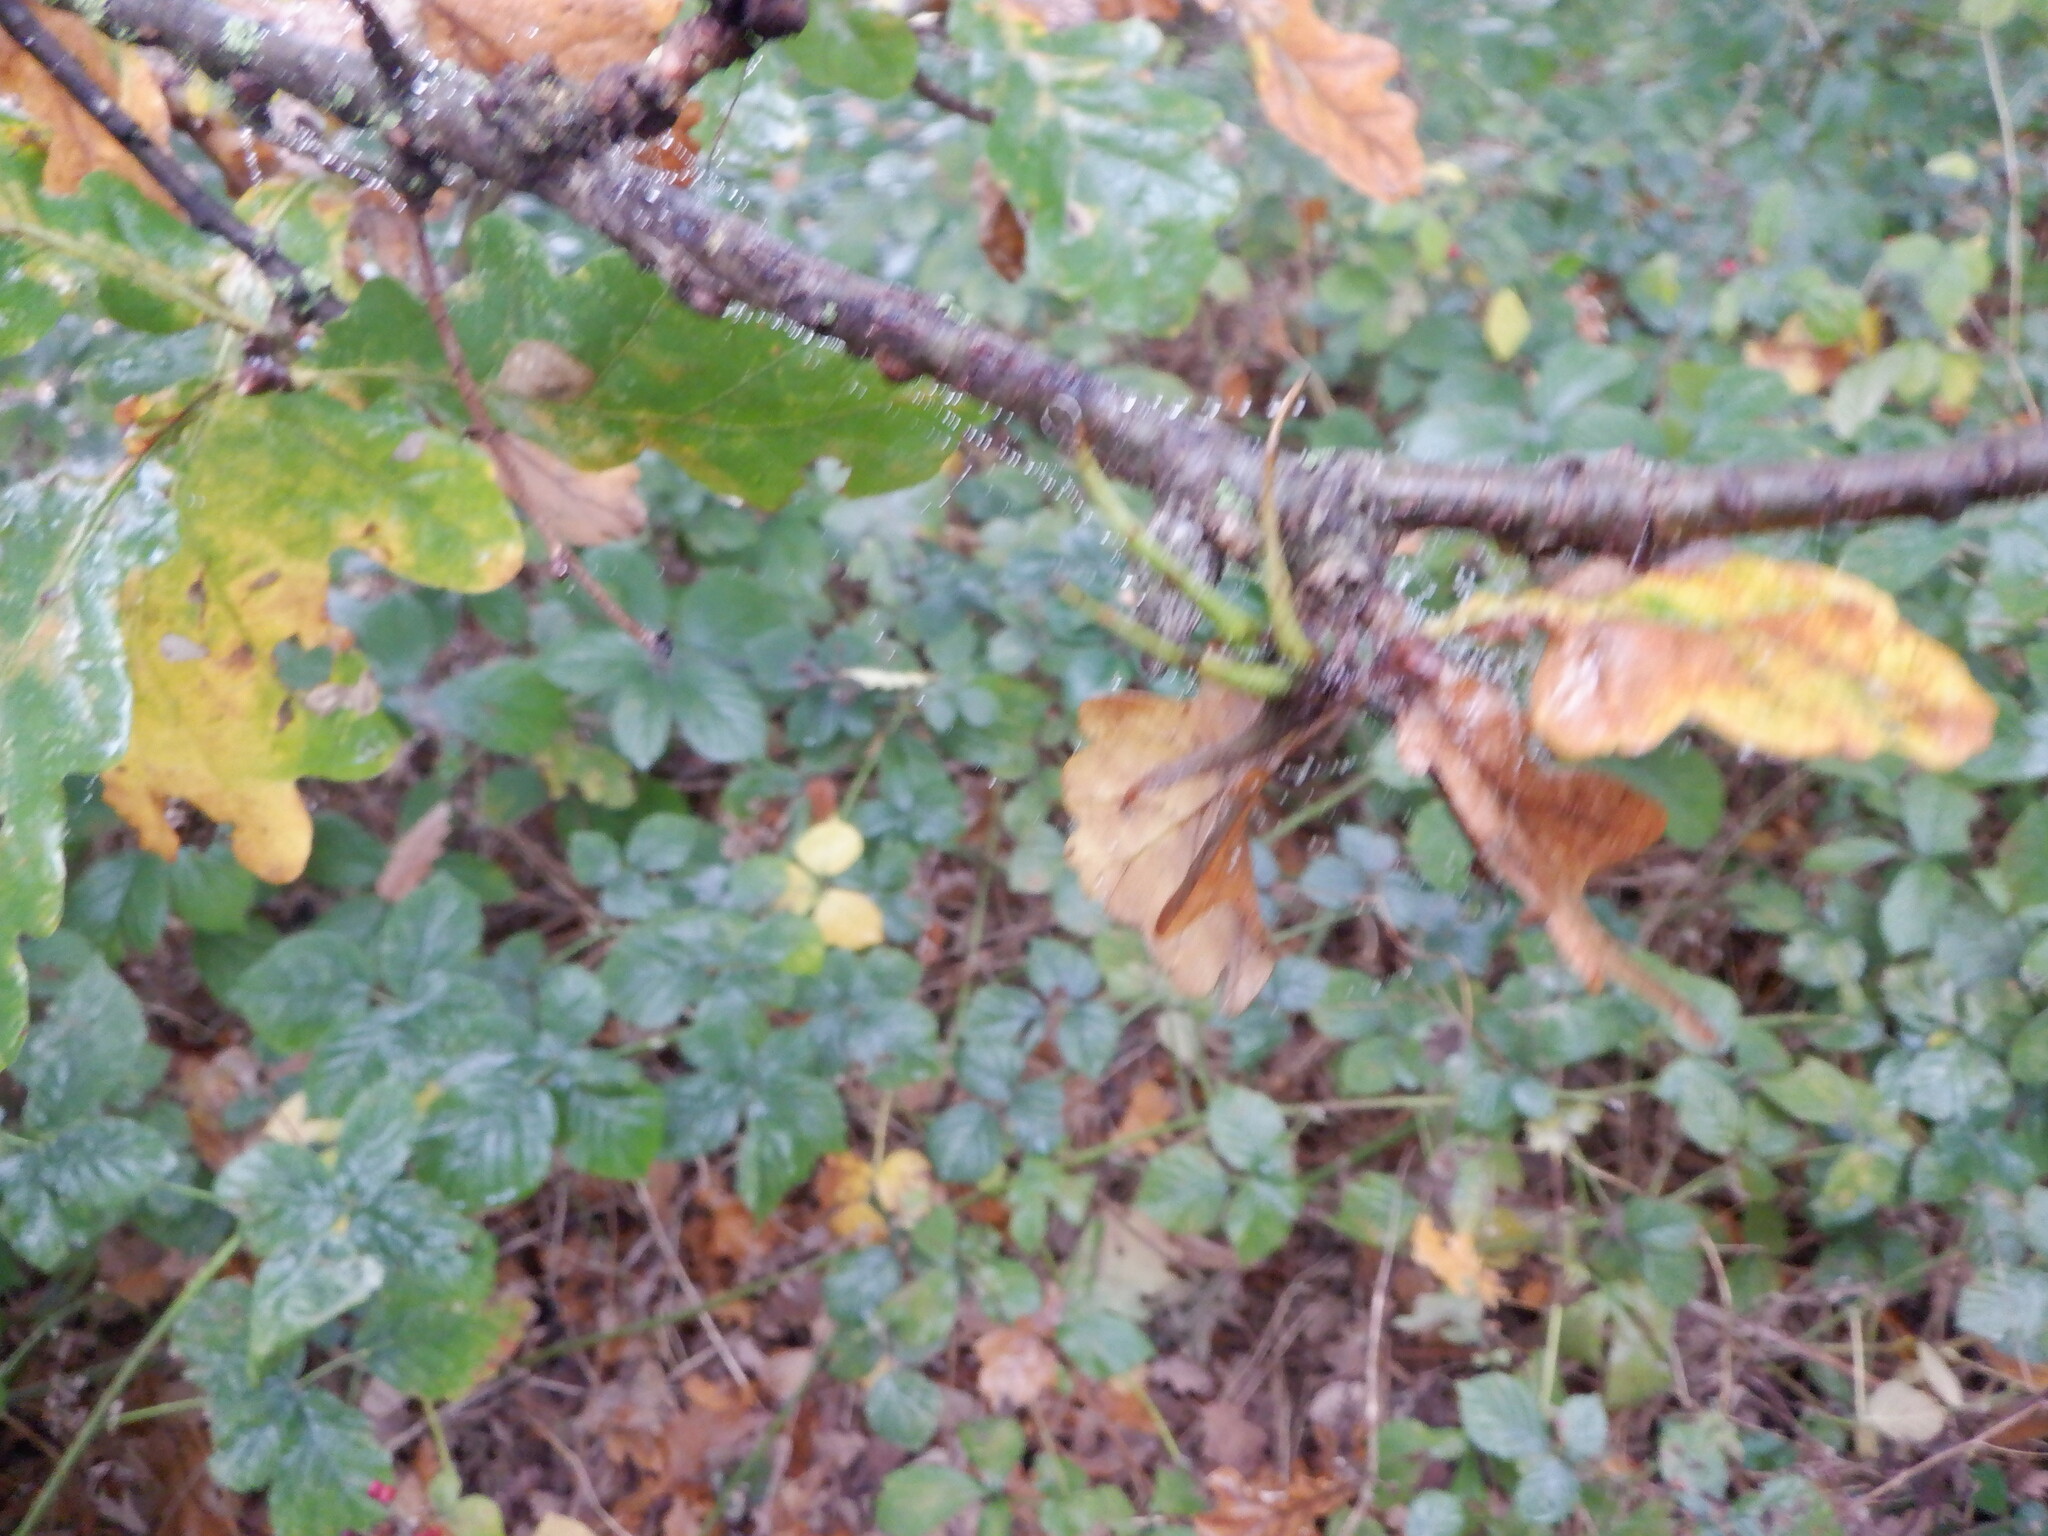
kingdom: Animalia
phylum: Arthropoda
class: Insecta
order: Hymenoptera
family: Cynipidae
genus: Andricus
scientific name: Andricus aries
